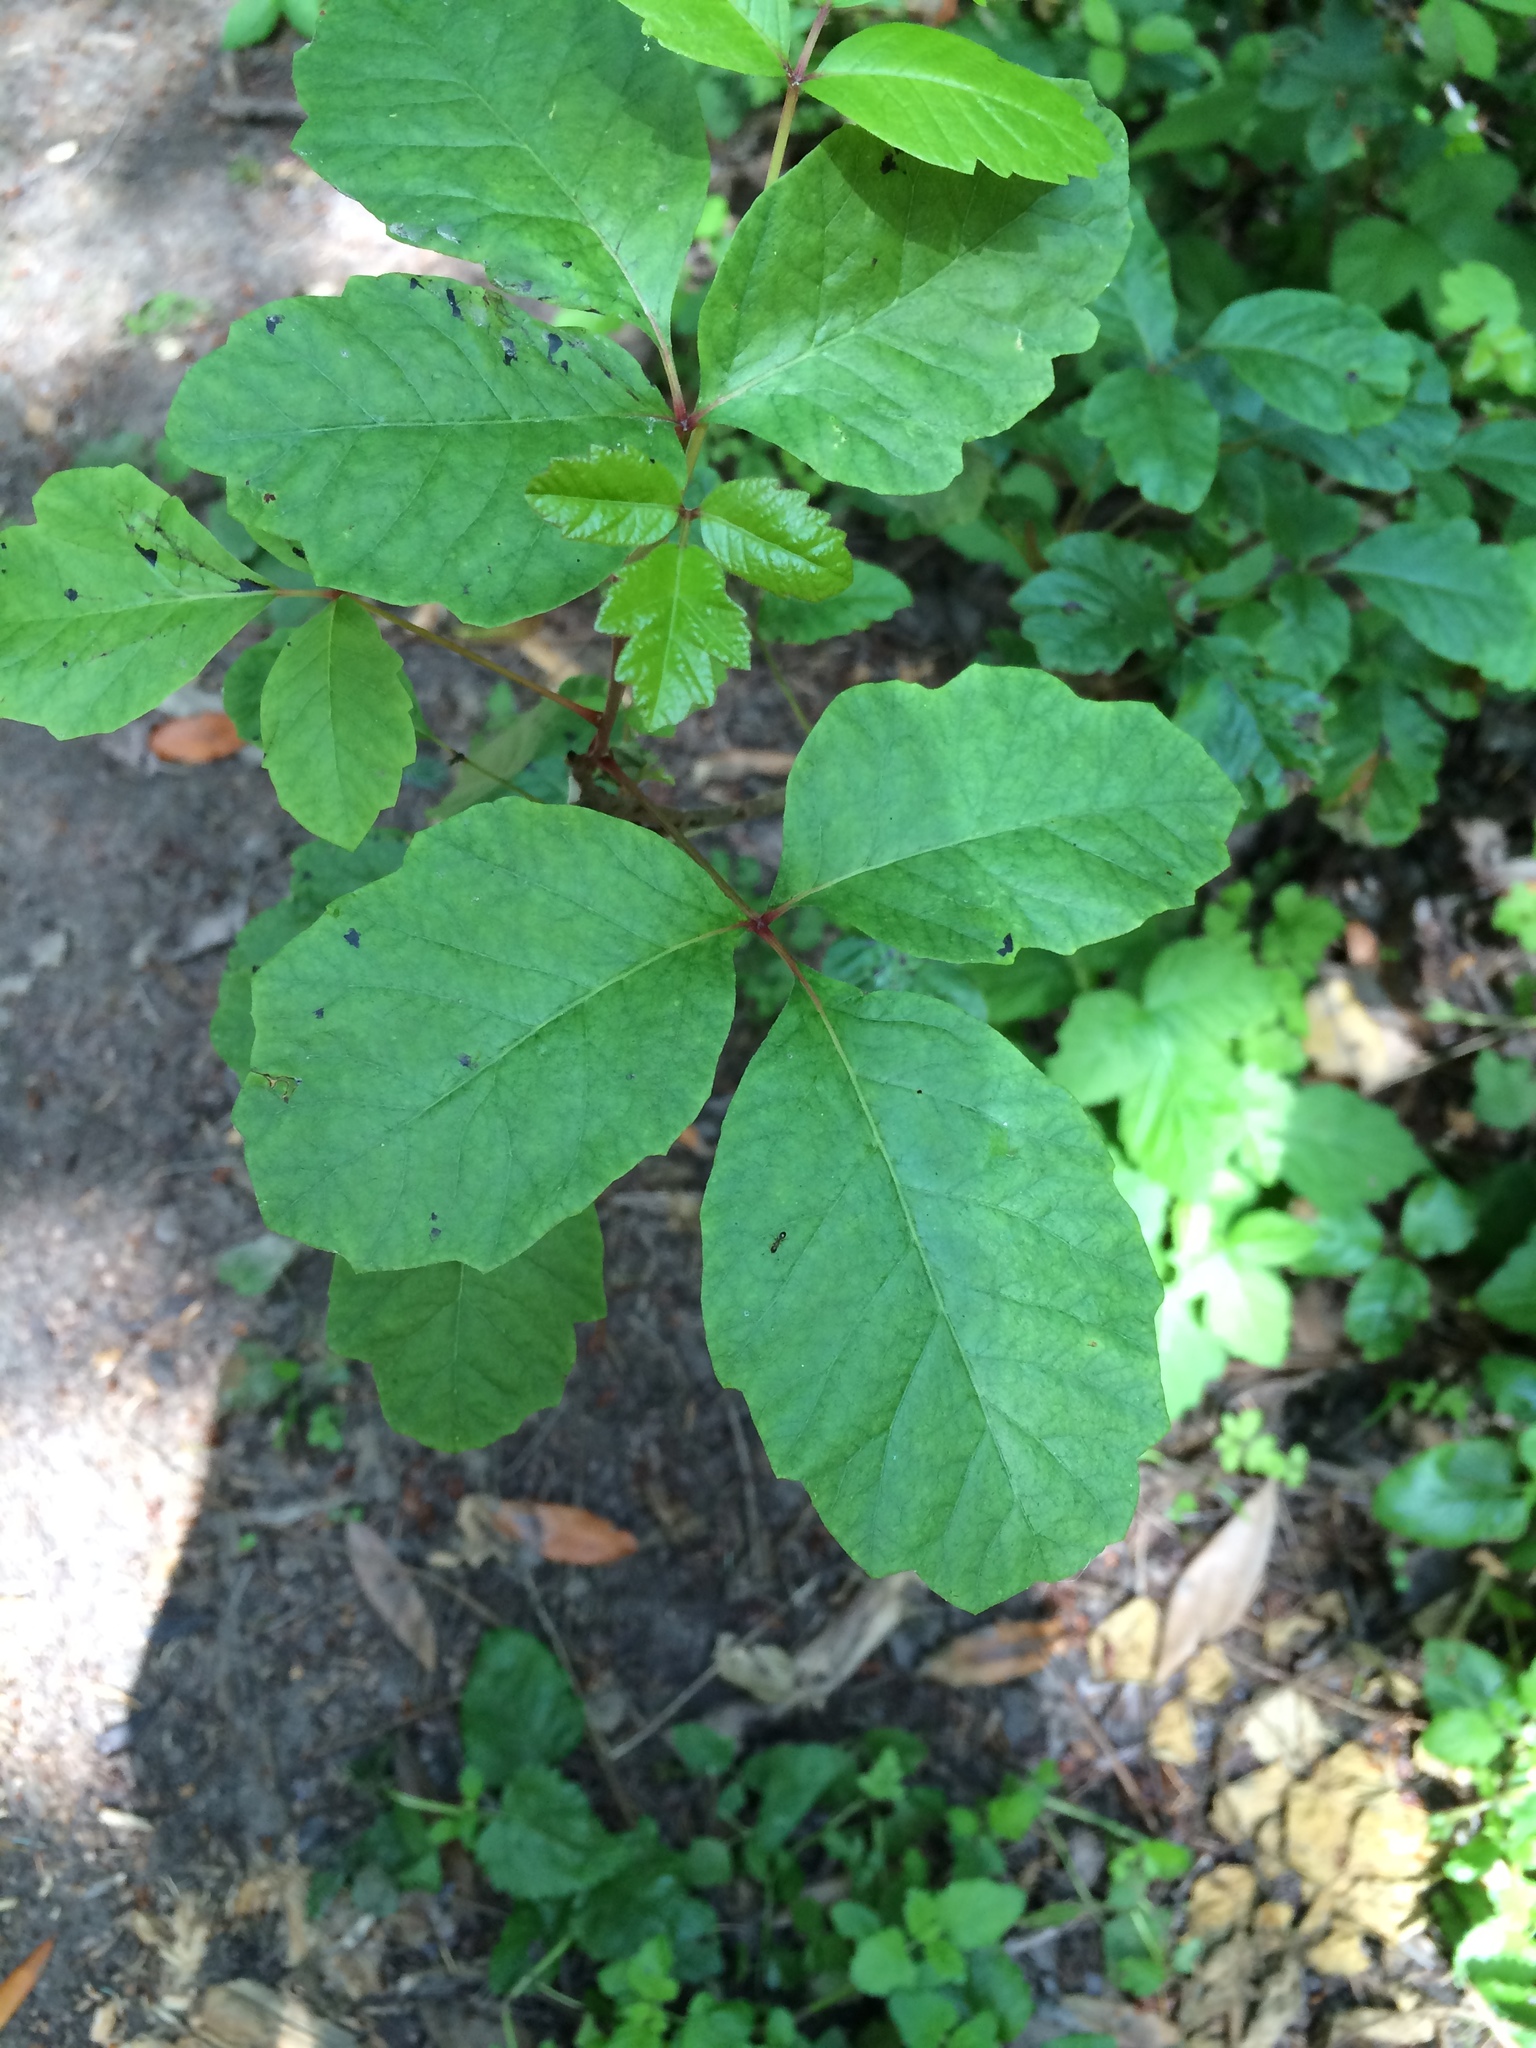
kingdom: Plantae
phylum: Tracheophyta
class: Magnoliopsida
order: Sapindales
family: Anacardiaceae
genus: Toxicodendron
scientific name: Toxicodendron diversilobum
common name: Pacific poison-oak
